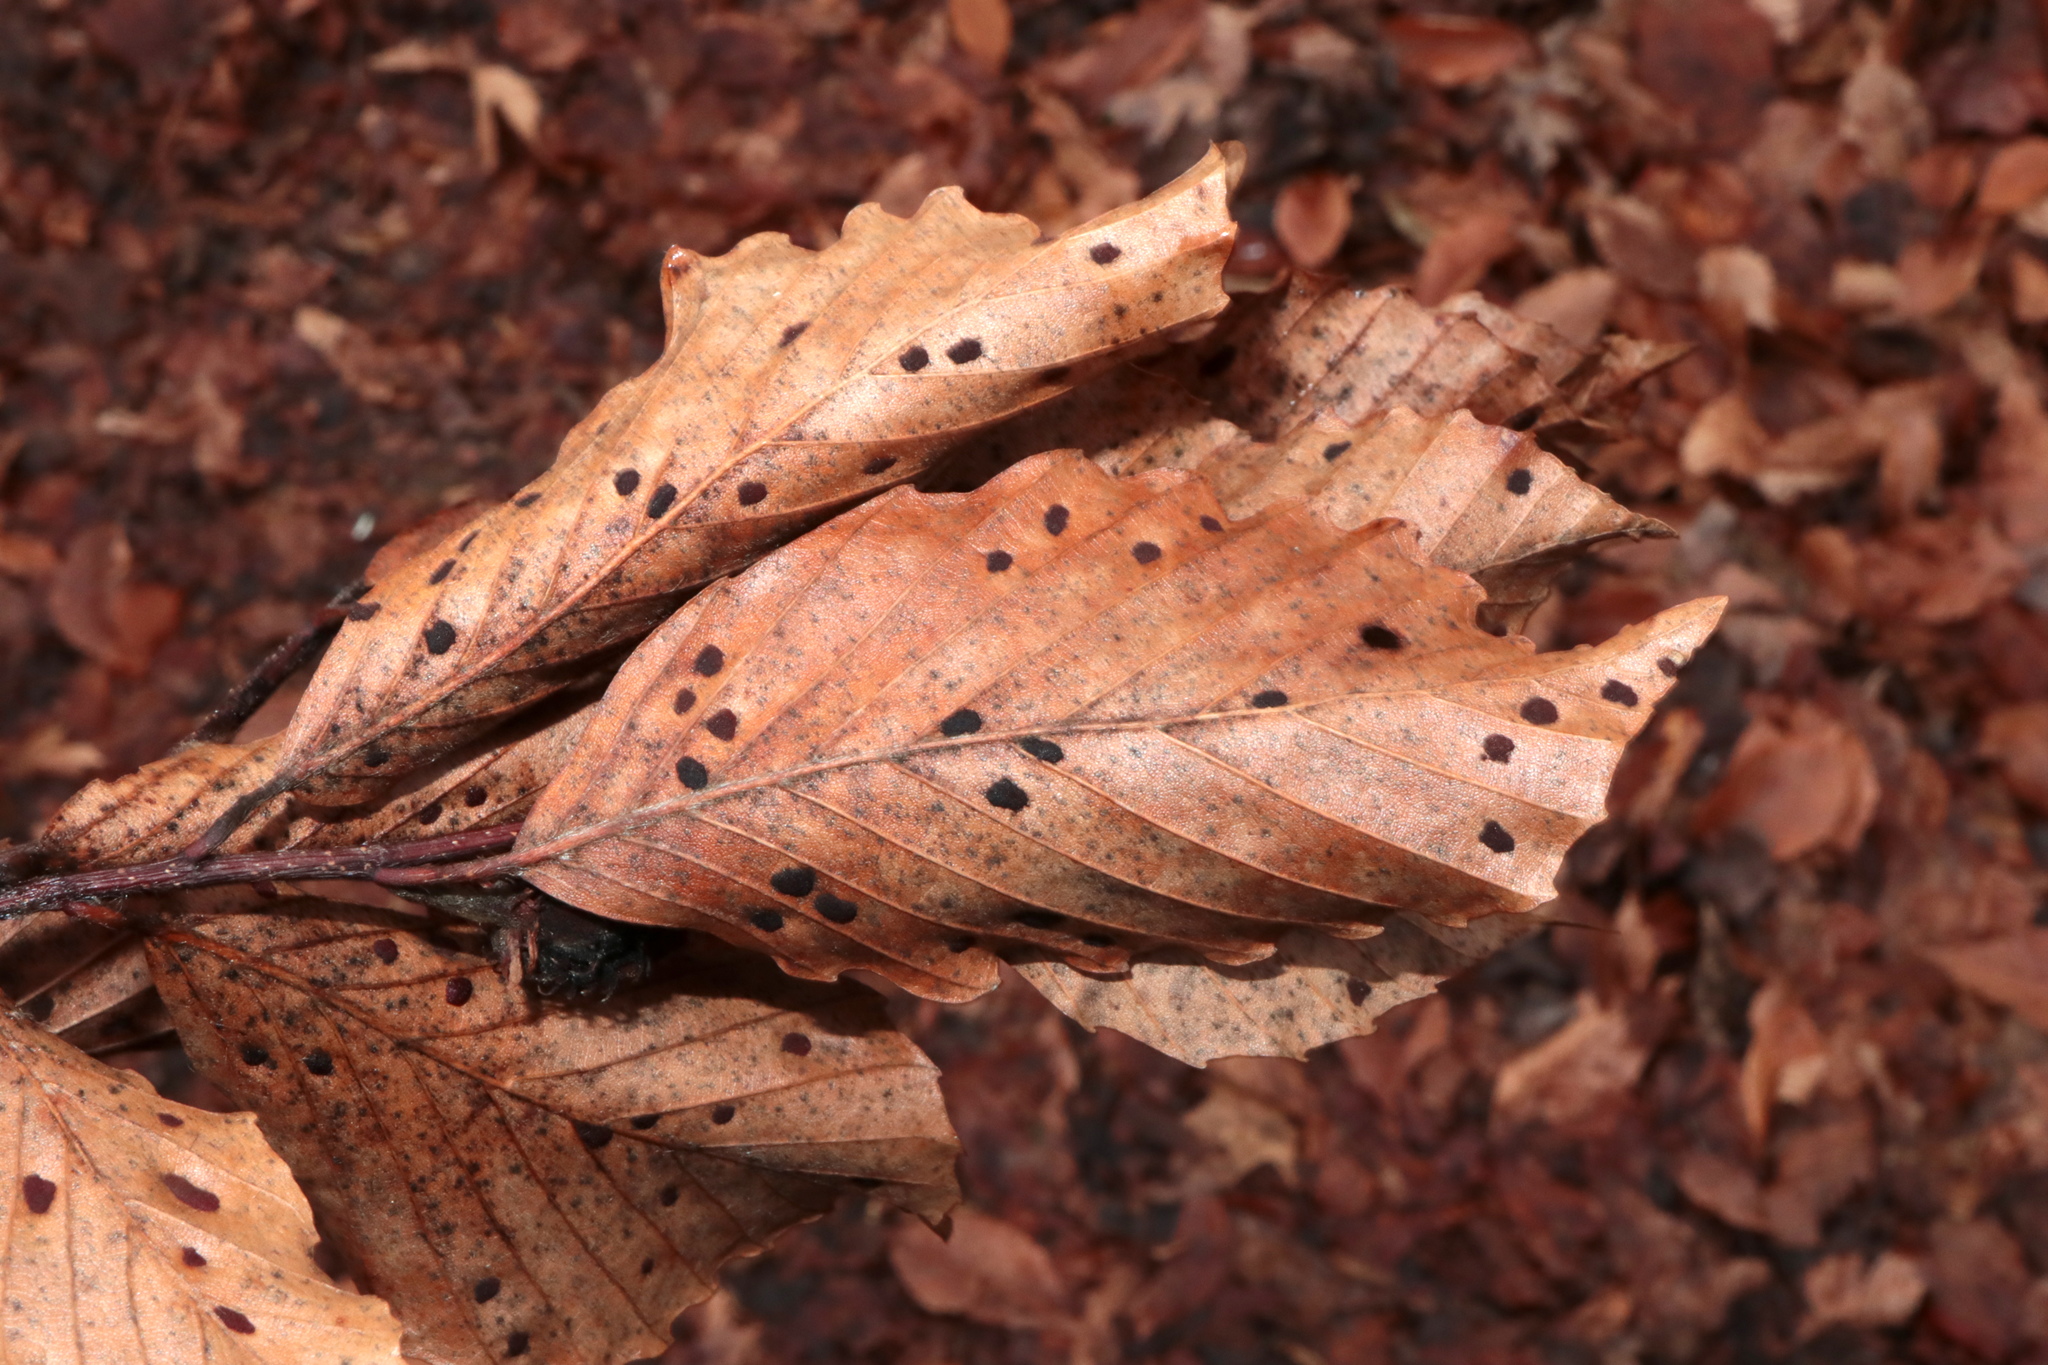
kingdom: Animalia
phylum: Arthropoda
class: Arachnida
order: Trombidiformes
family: Eriophyidae
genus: Acalitus
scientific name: Acalitus
